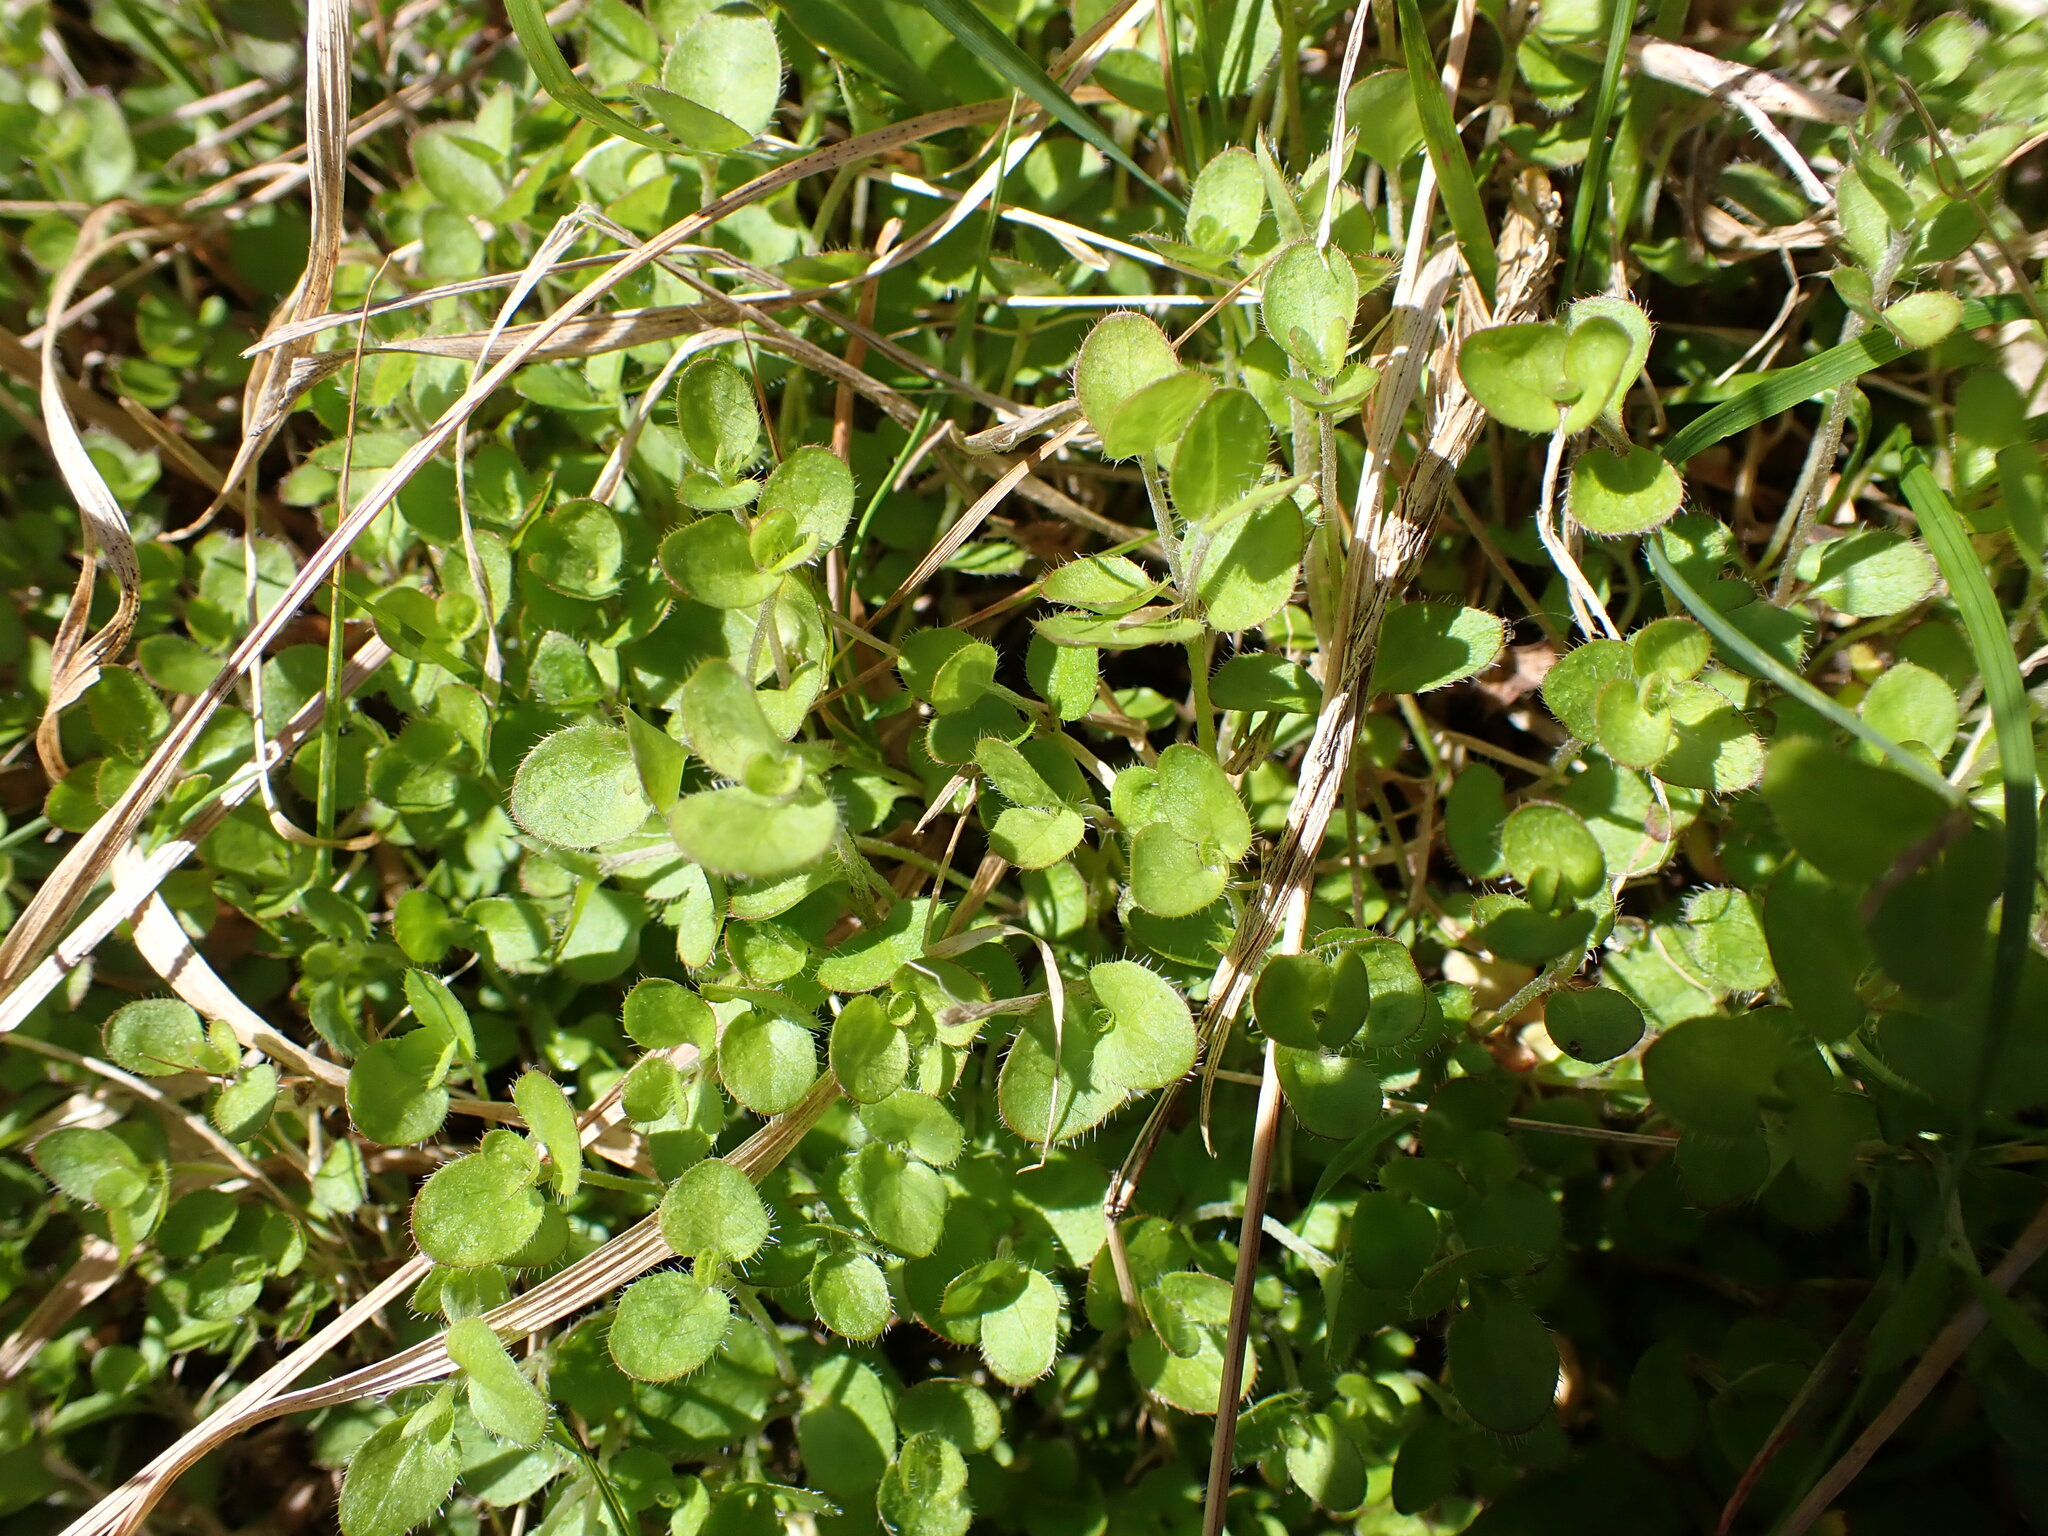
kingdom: Plantae
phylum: Tracheophyta
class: Magnoliopsida
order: Gentianales
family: Rubiaceae
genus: Leptostigma
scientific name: Leptostigma setulosum
